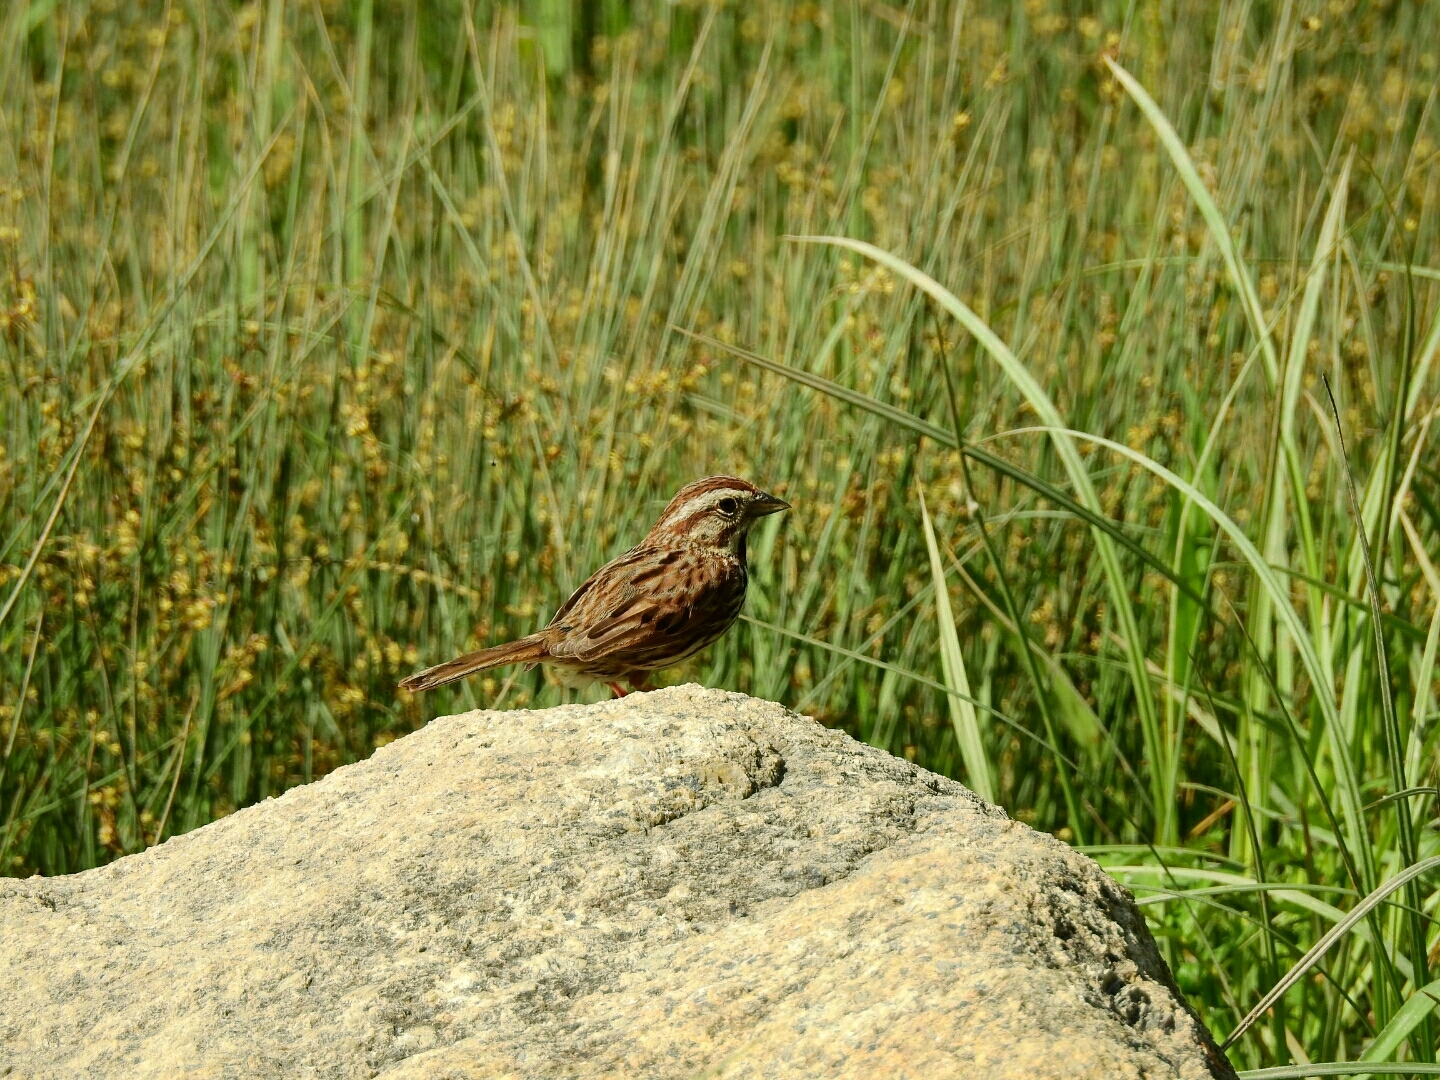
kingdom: Animalia
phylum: Chordata
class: Aves
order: Passeriformes
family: Passerellidae
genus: Melospiza
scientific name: Melospiza melodia
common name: Song sparrow
